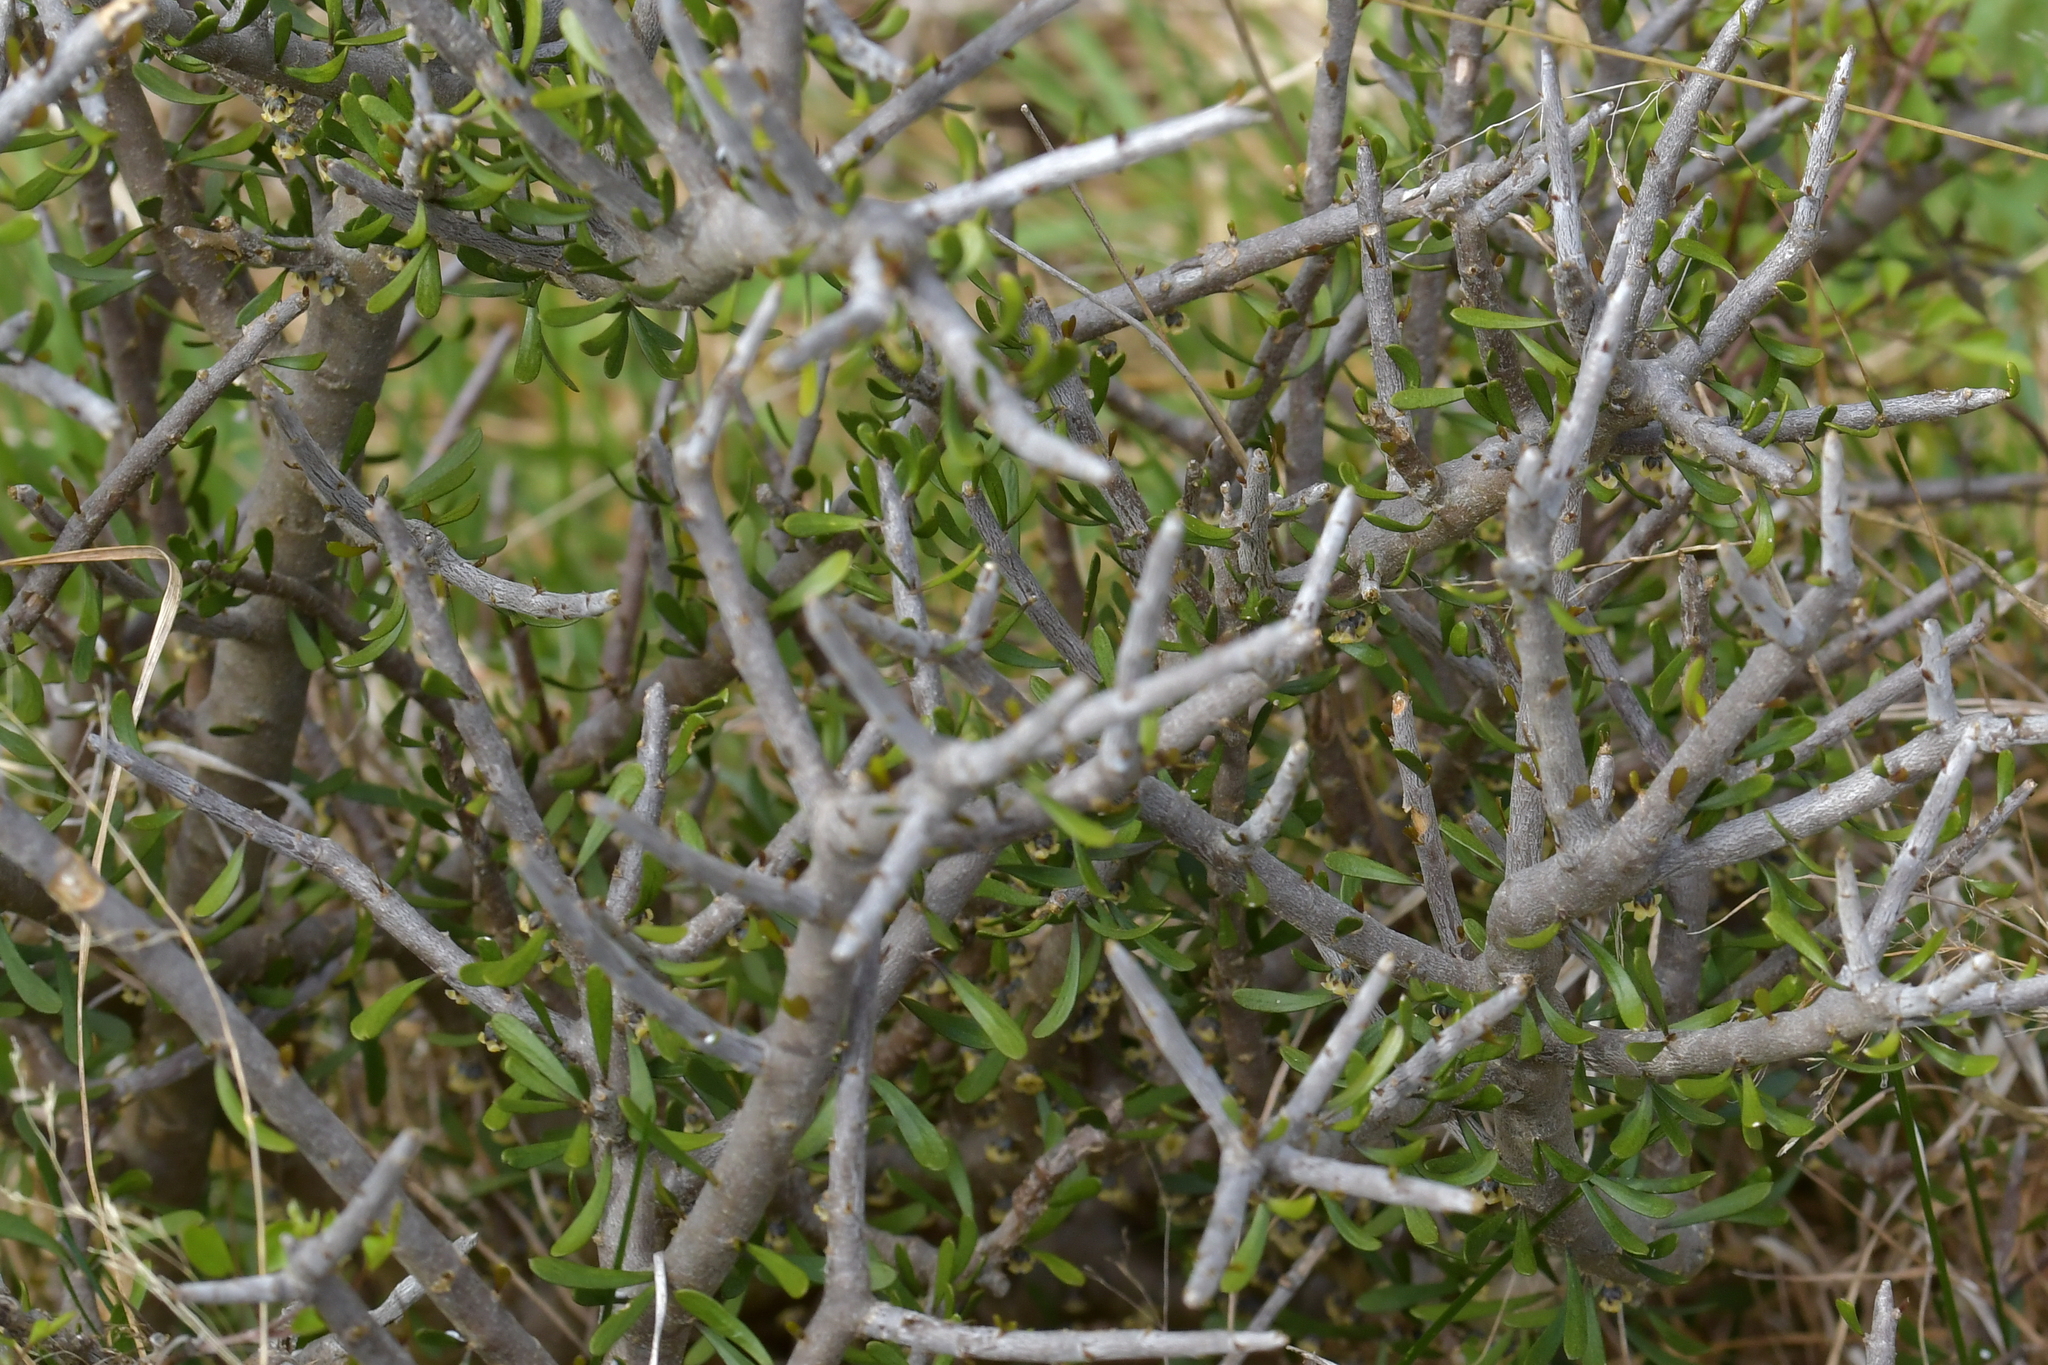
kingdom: Plantae
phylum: Tracheophyta
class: Magnoliopsida
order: Malpighiales
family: Violaceae
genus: Melicytus
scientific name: Melicytus alpinus
